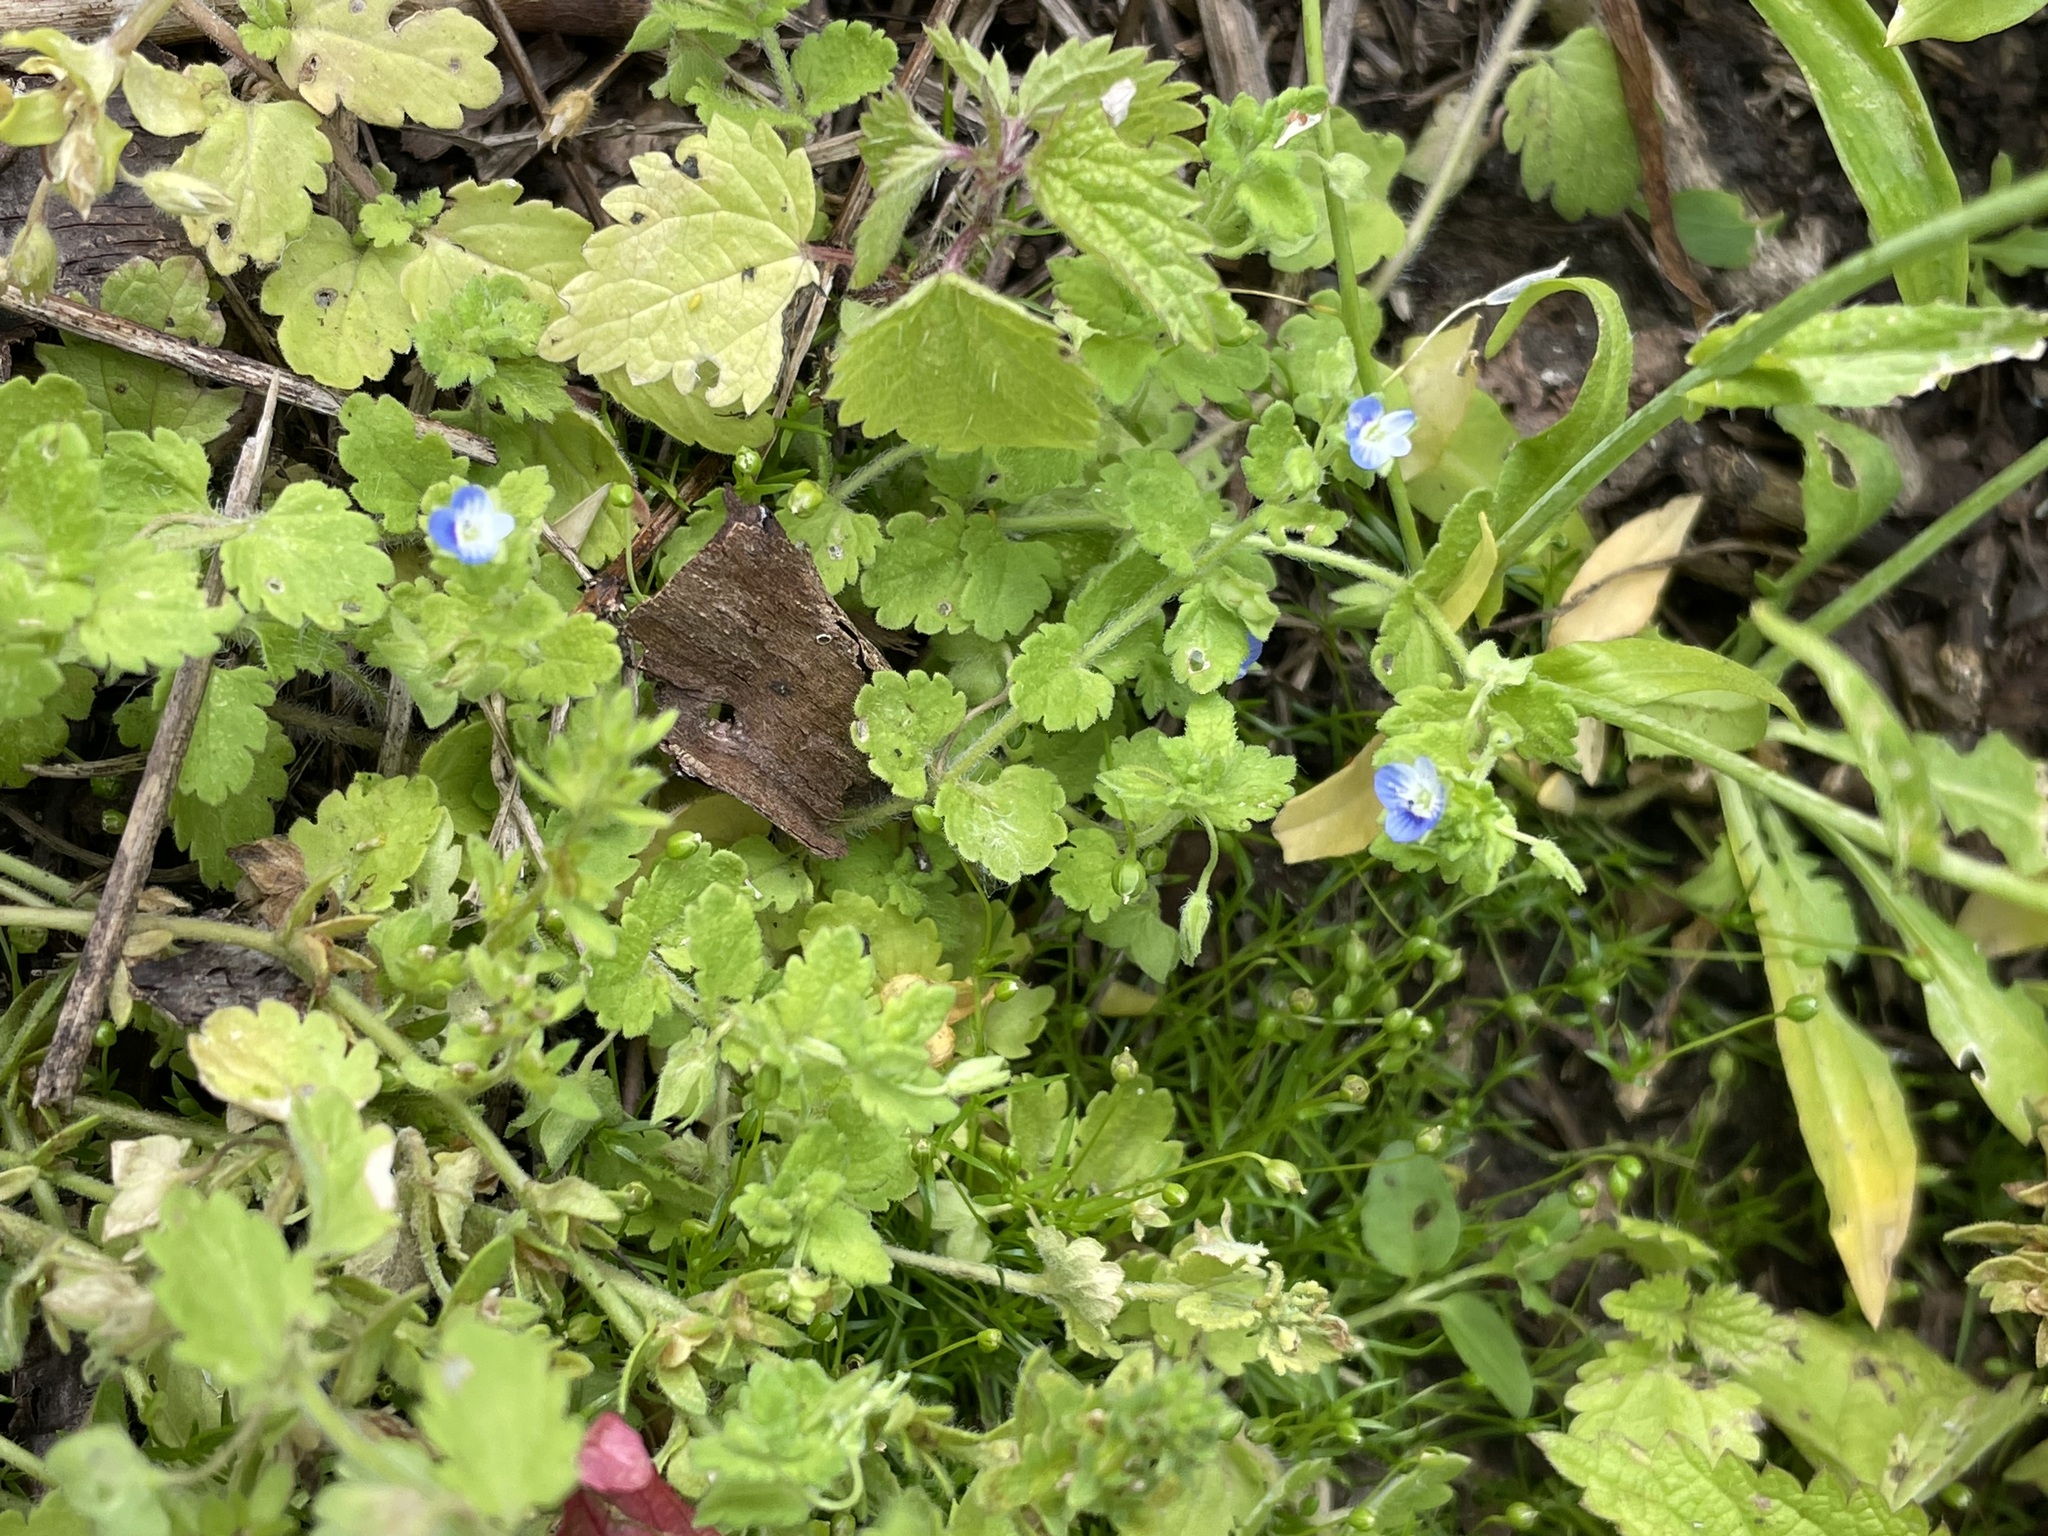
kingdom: Plantae
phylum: Tracheophyta
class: Magnoliopsida
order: Lamiales
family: Plantaginaceae
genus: Veronica
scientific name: Veronica polita
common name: Grey field-speedwell
